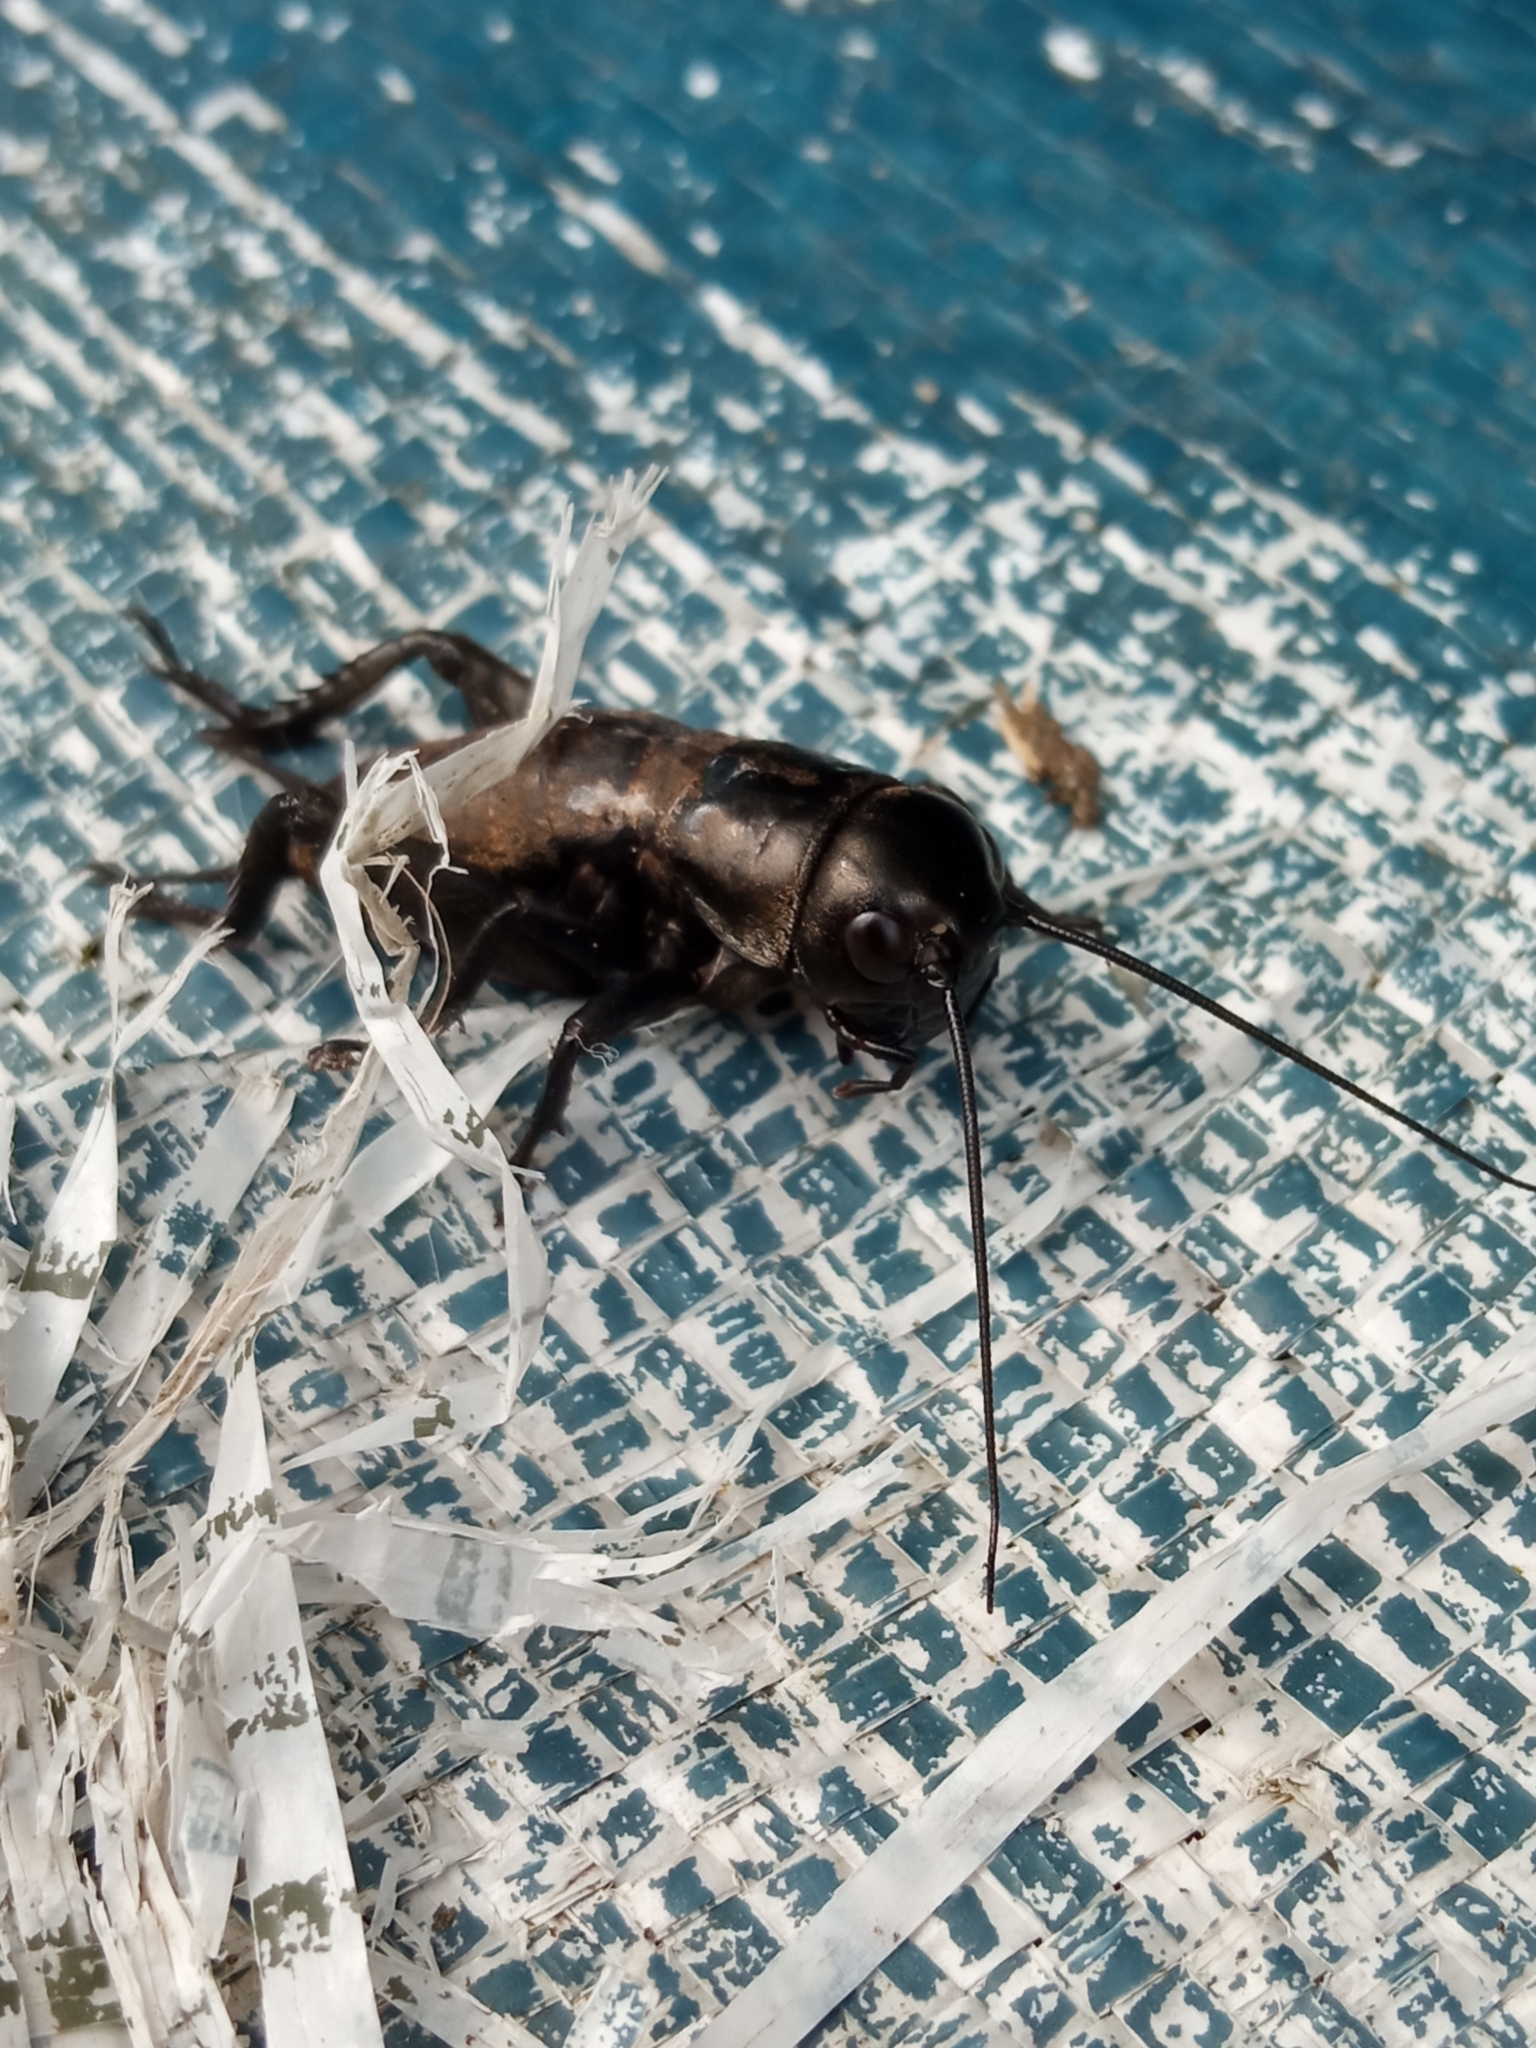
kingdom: Animalia
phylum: Arthropoda
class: Insecta
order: Orthoptera
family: Gryllidae
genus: Gryllus
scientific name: Gryllus campestris
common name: Field cricket
